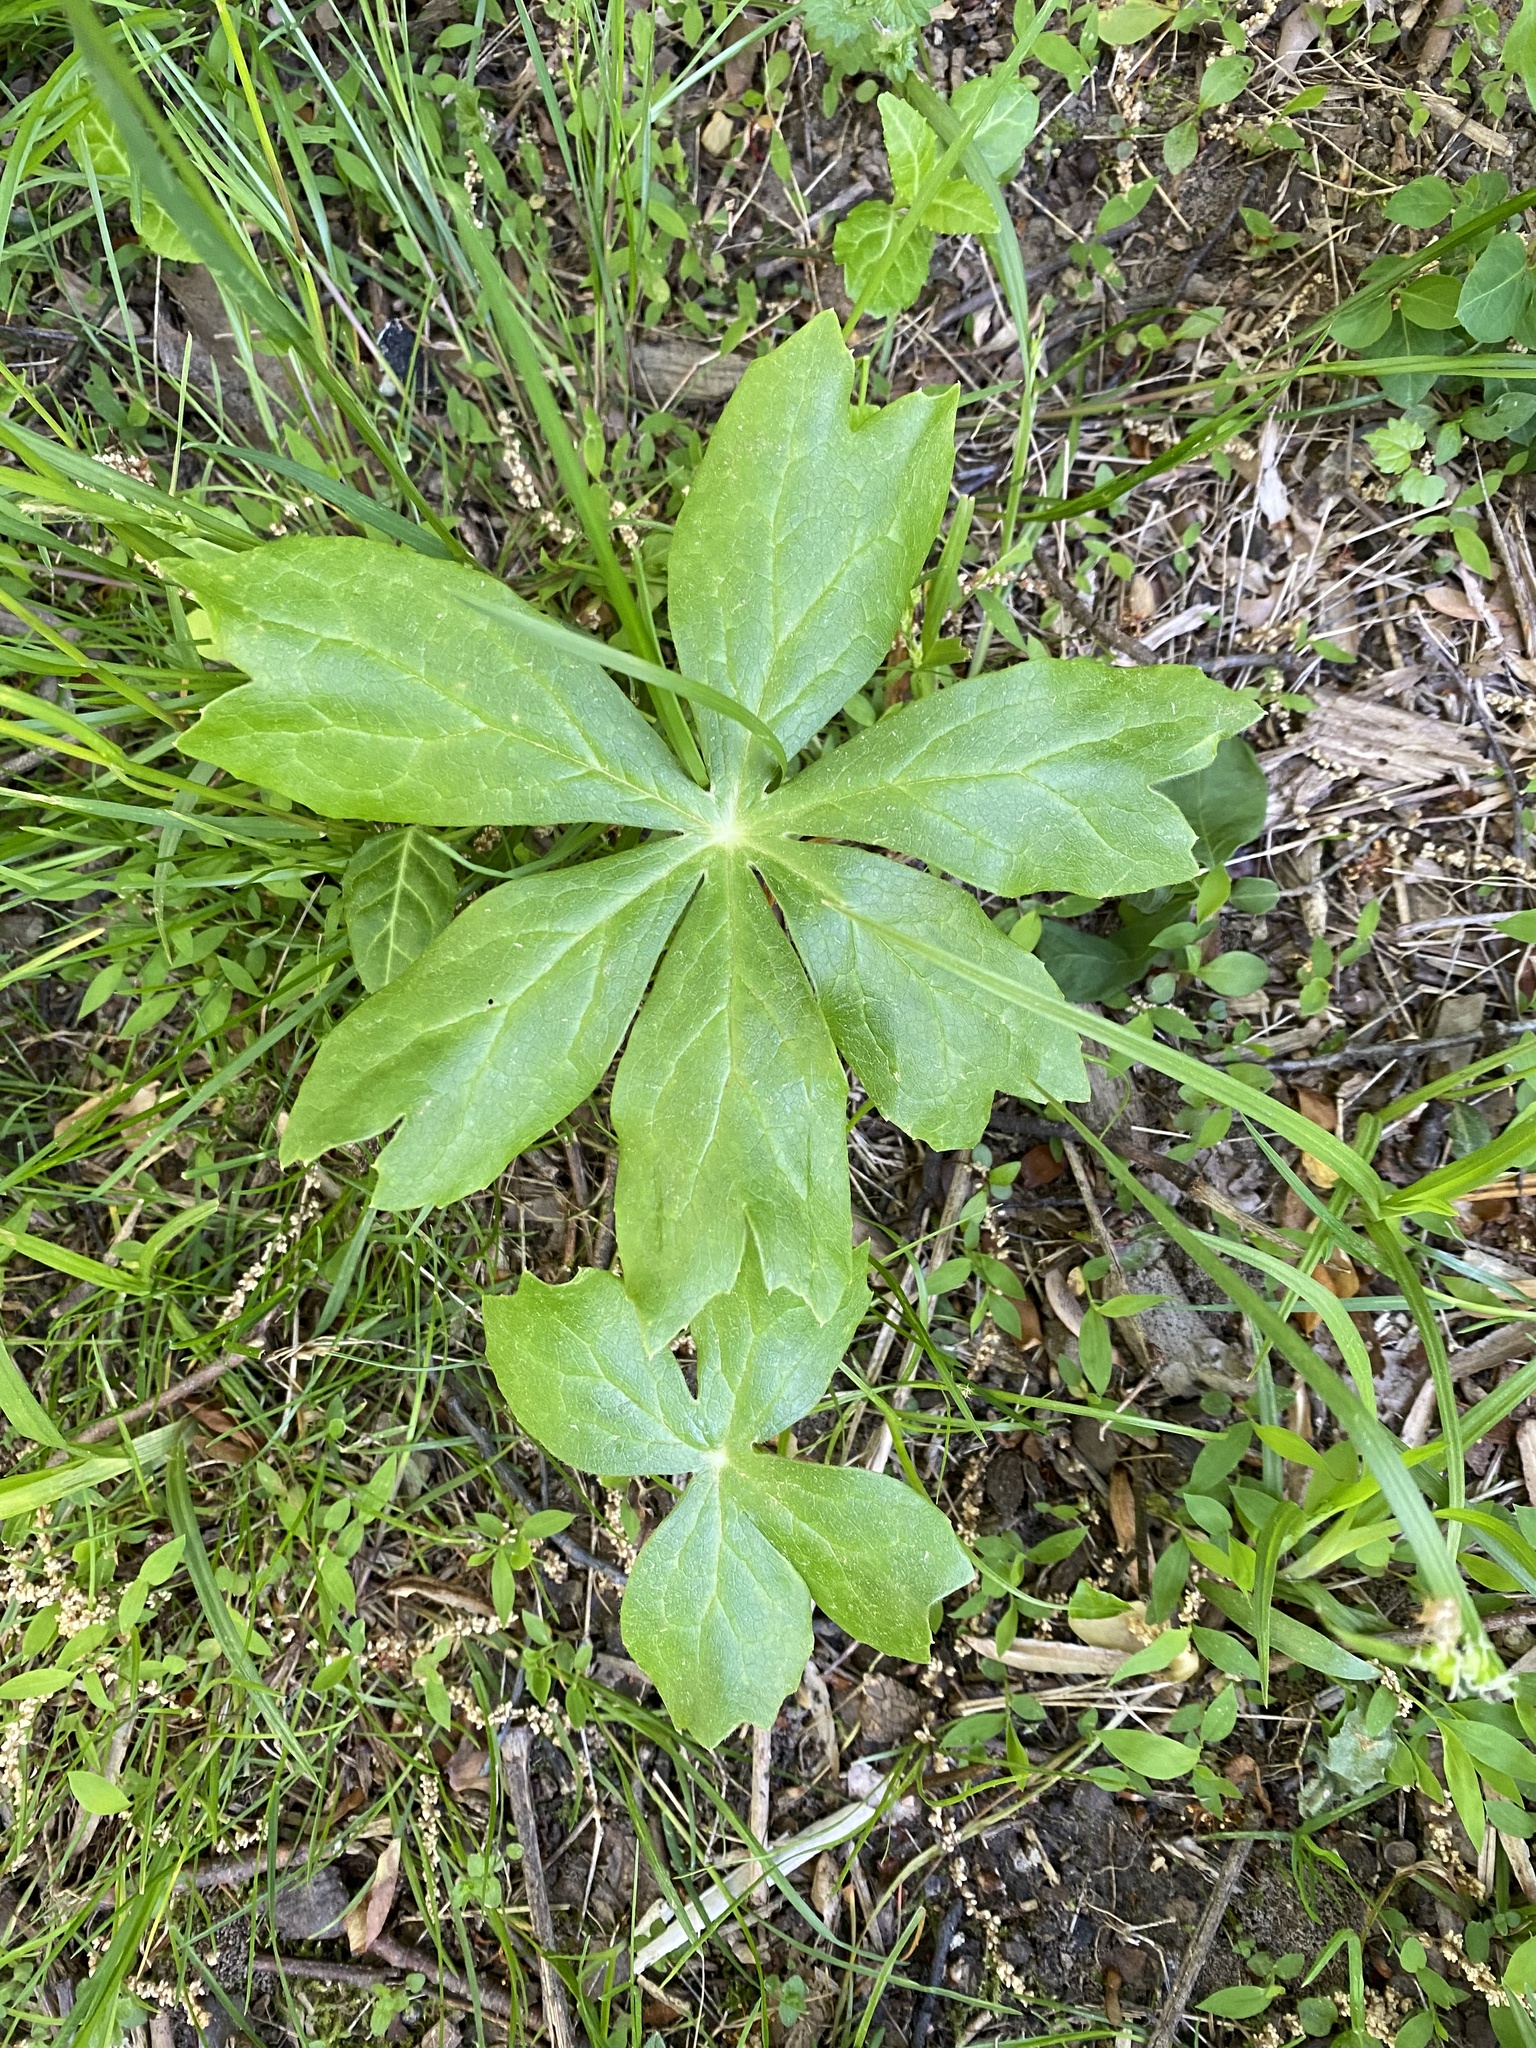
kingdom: Plantae
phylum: Tracheophyta
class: Magnoliopsida
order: Ranunculales
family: Berberidaceae
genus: Podophyllum
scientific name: Podophyllum peltatum
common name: Wild mandrake
